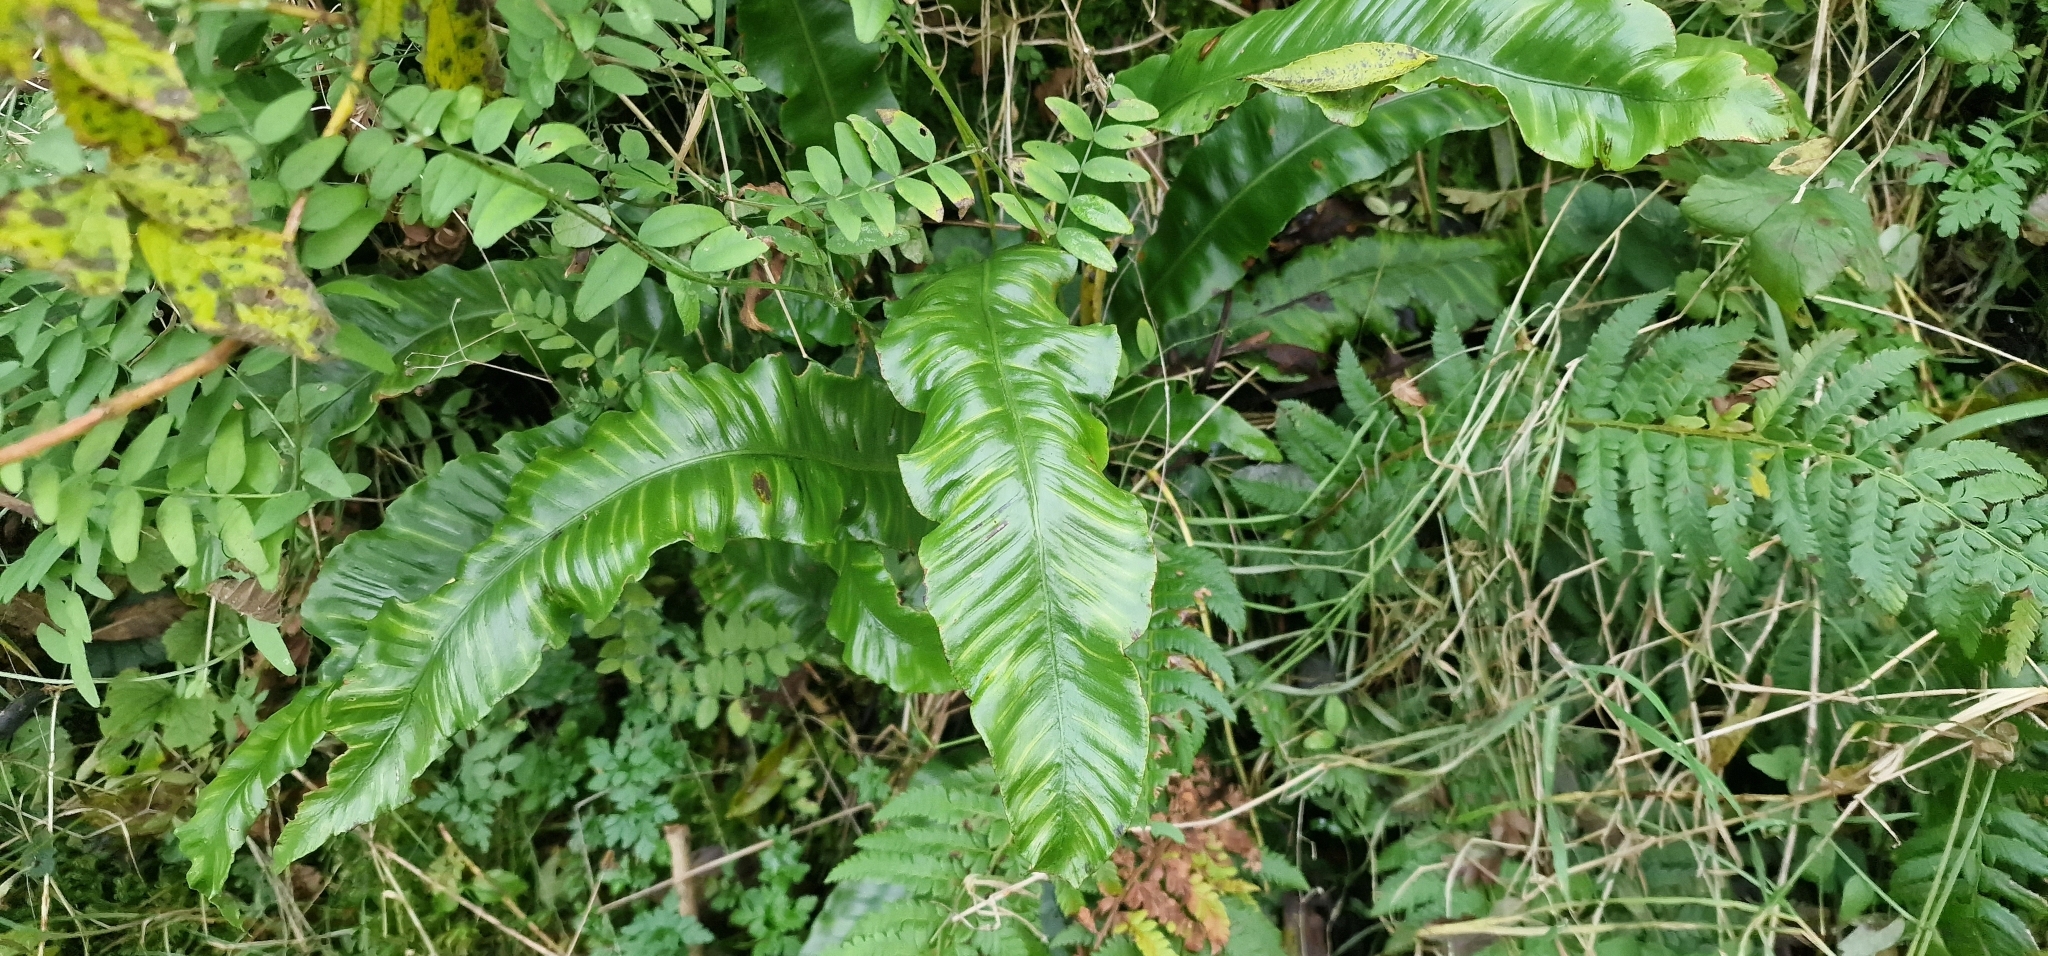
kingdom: Plantae
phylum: Tracheophyta
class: Polypodiopsida
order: Polypodiales
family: Aspleniaceae
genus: Asplenium
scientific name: Asplenium scolopendrium
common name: Hart's-tongue fern
